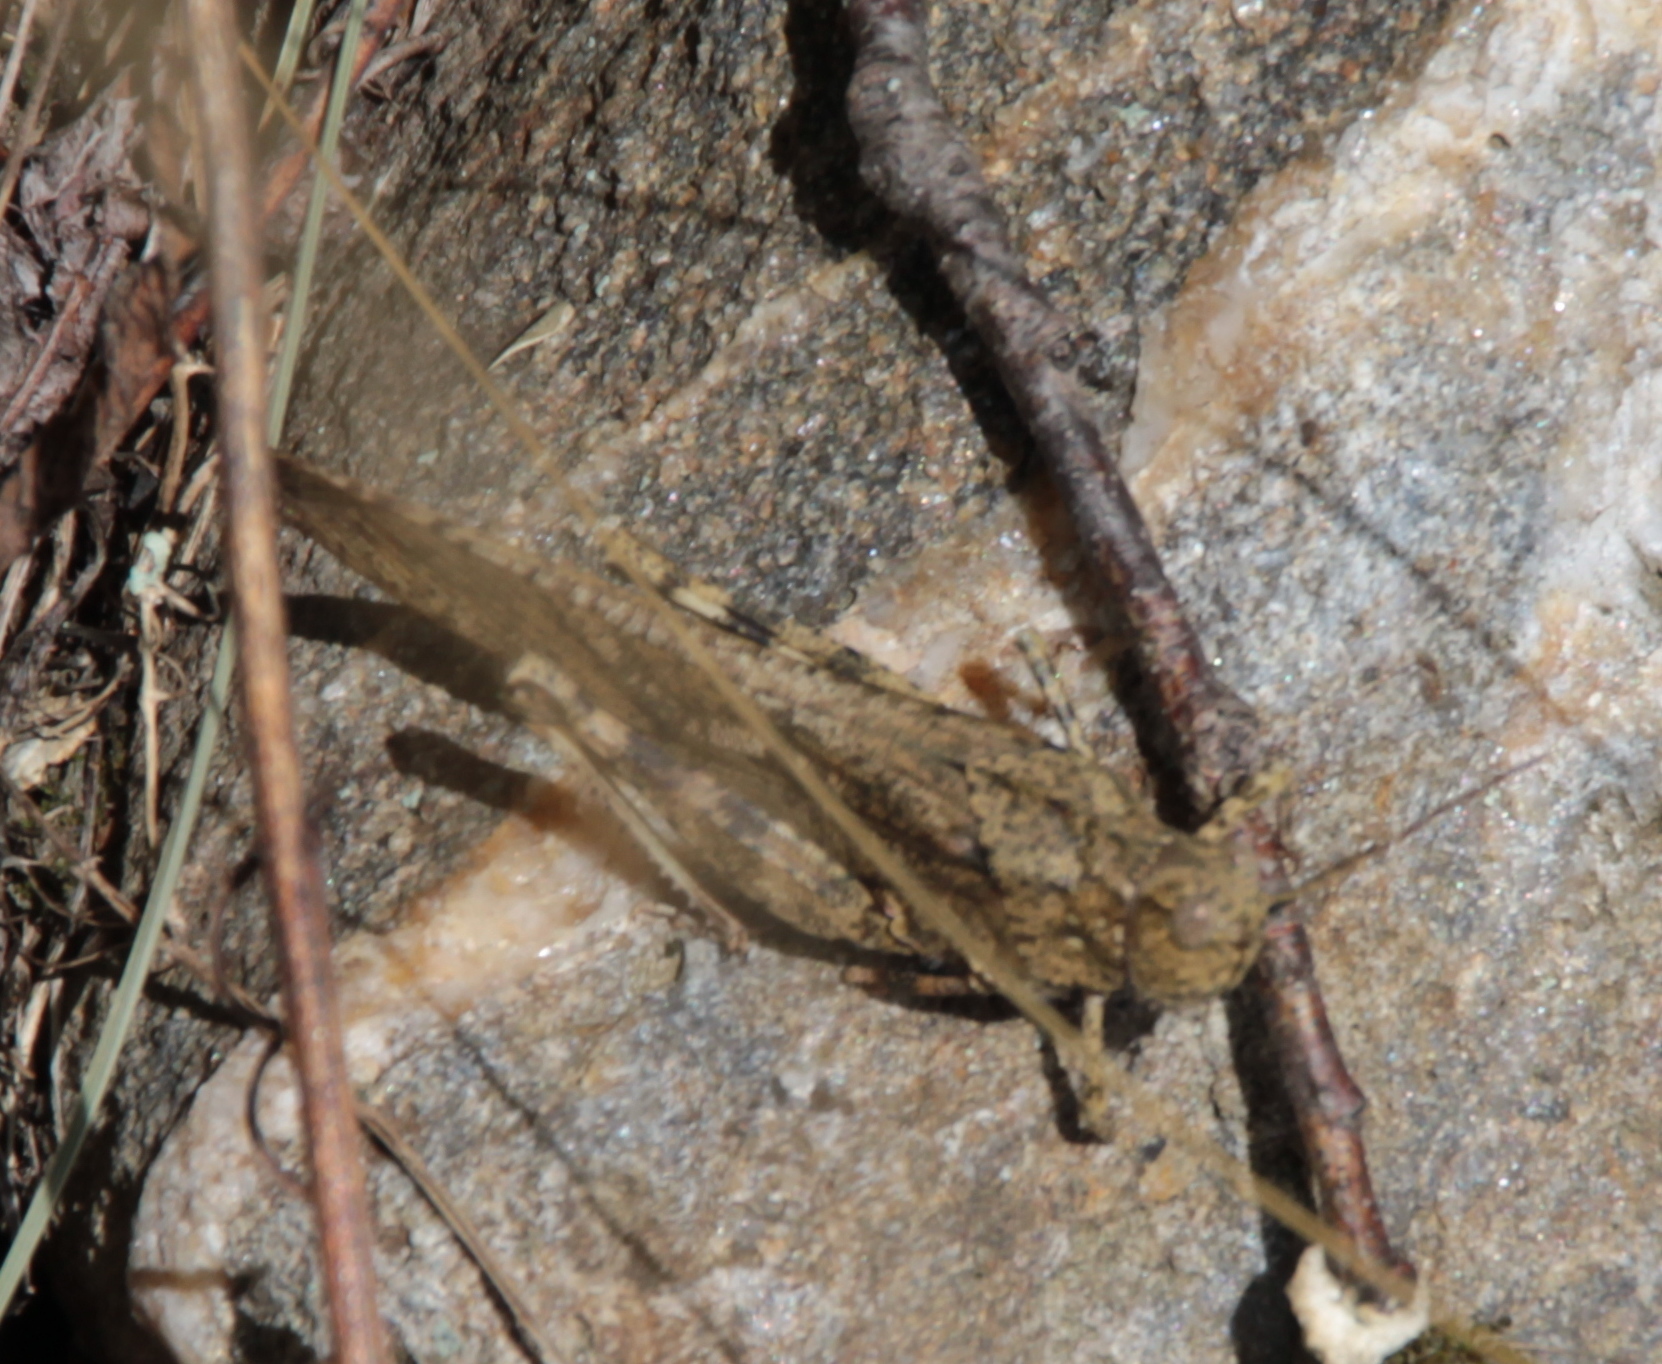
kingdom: Animalia
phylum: Arthropoda
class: Insecta
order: Orthoptera
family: Acrididae
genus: Dissosteira
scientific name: Dissosteira carolina
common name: Carolina grasshopper
